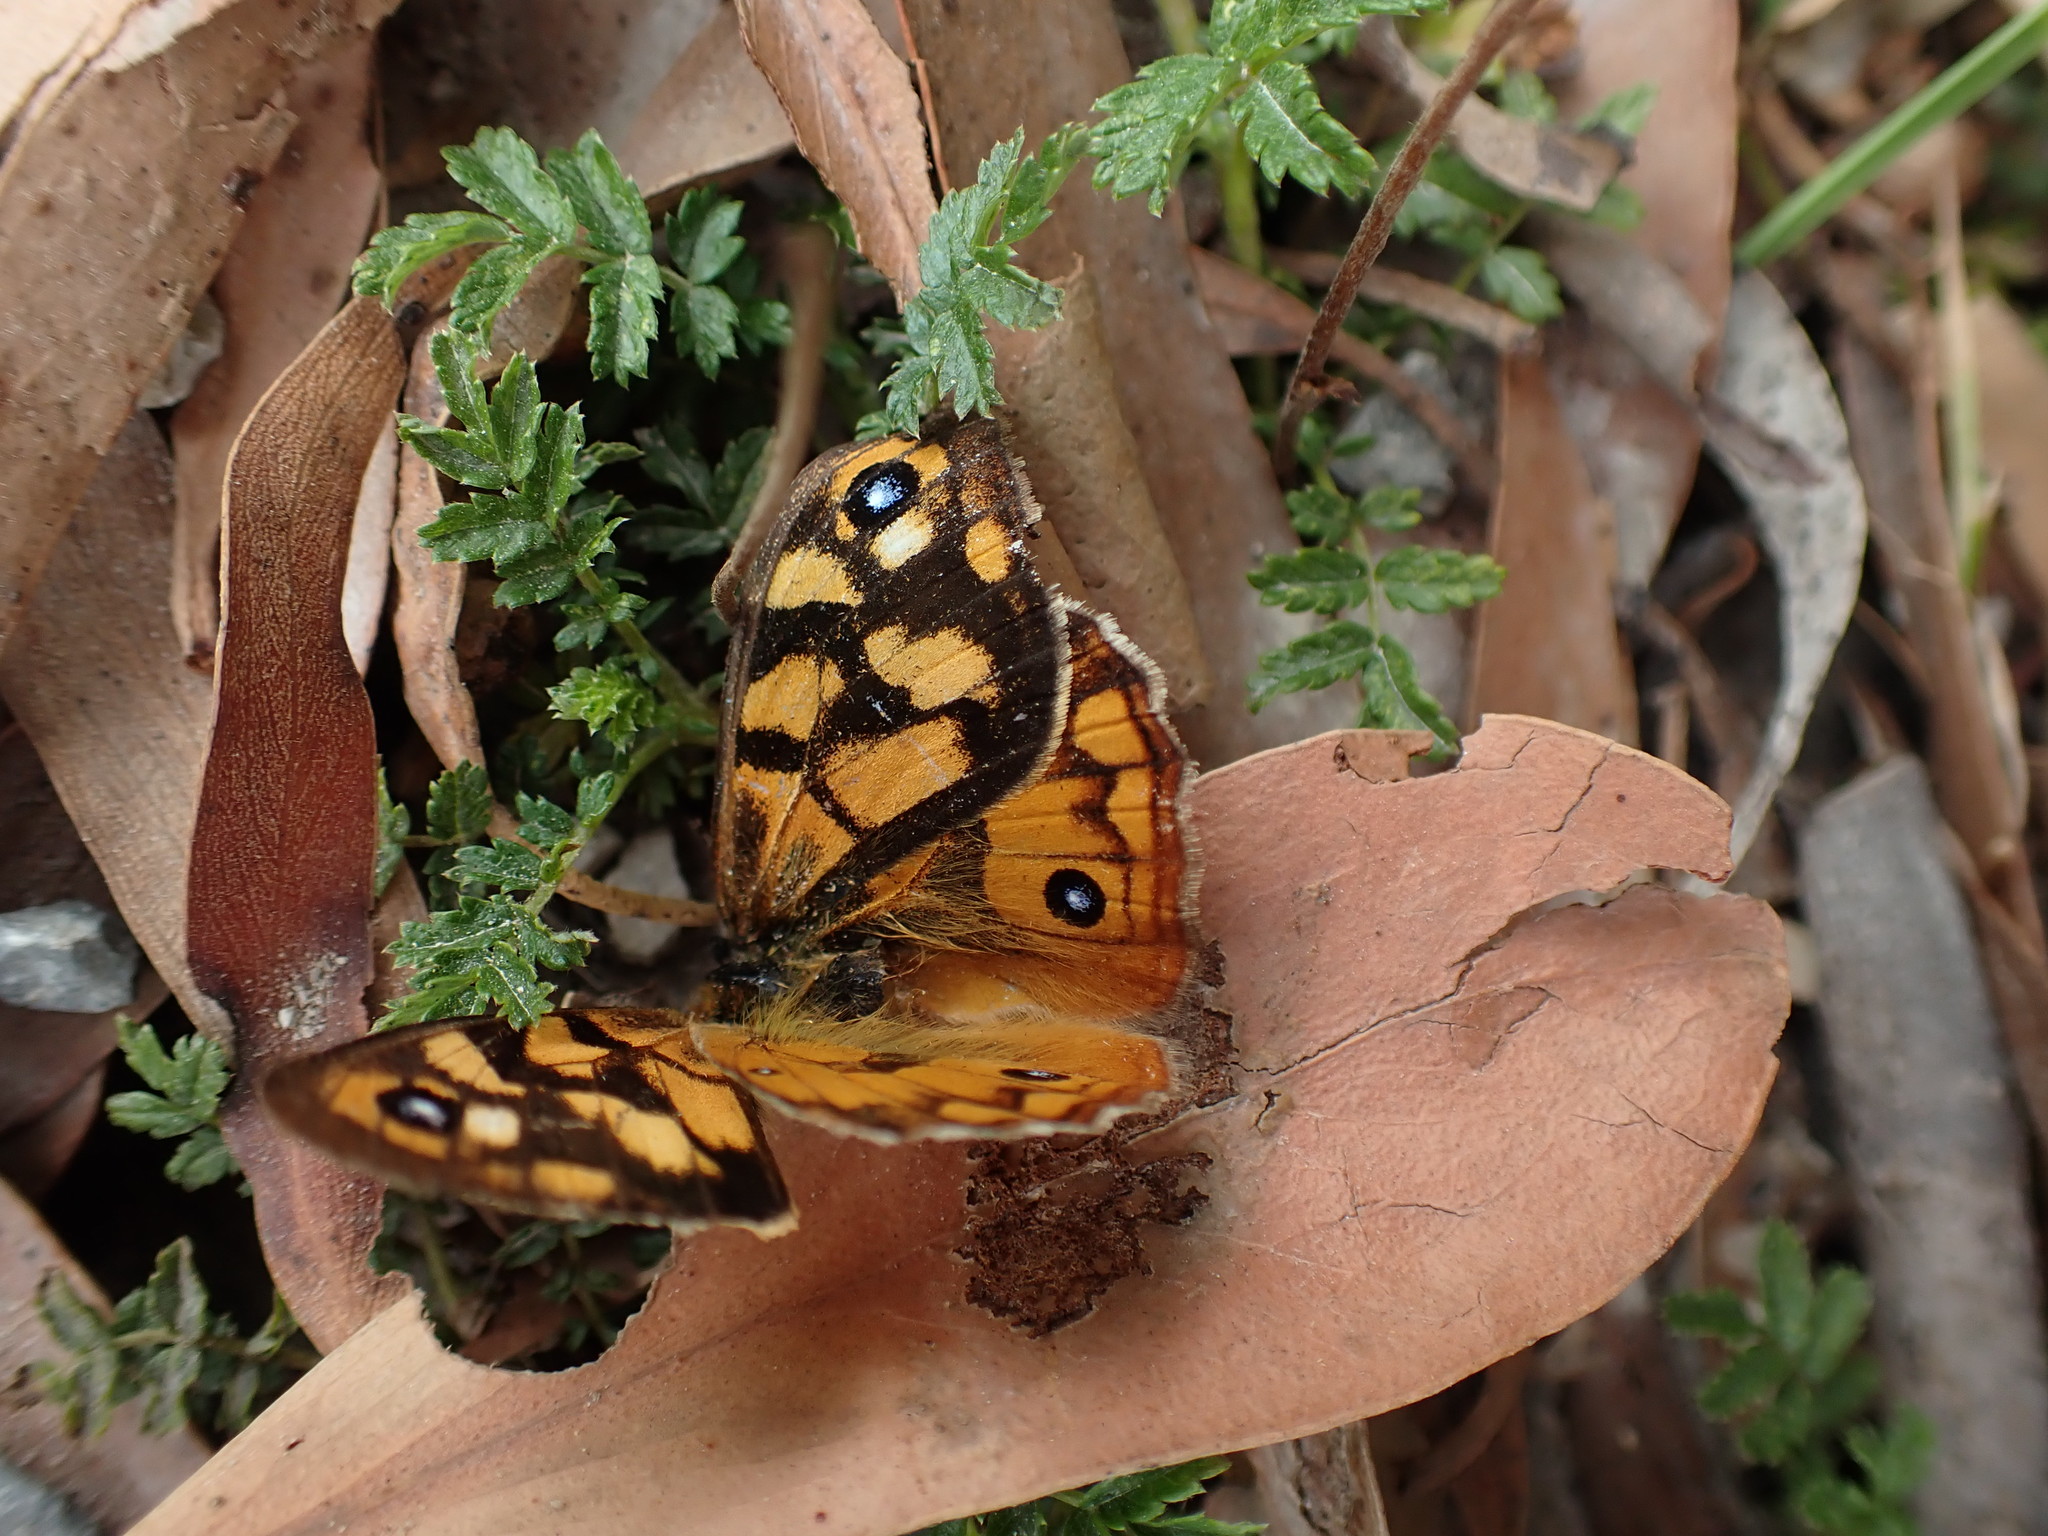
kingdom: Animalia
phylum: Arthropoda
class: Insecta
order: Lepidoptera
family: Nymphalidae
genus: Heteronympha
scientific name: Heteronympha penelope
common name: Shouldered brown
